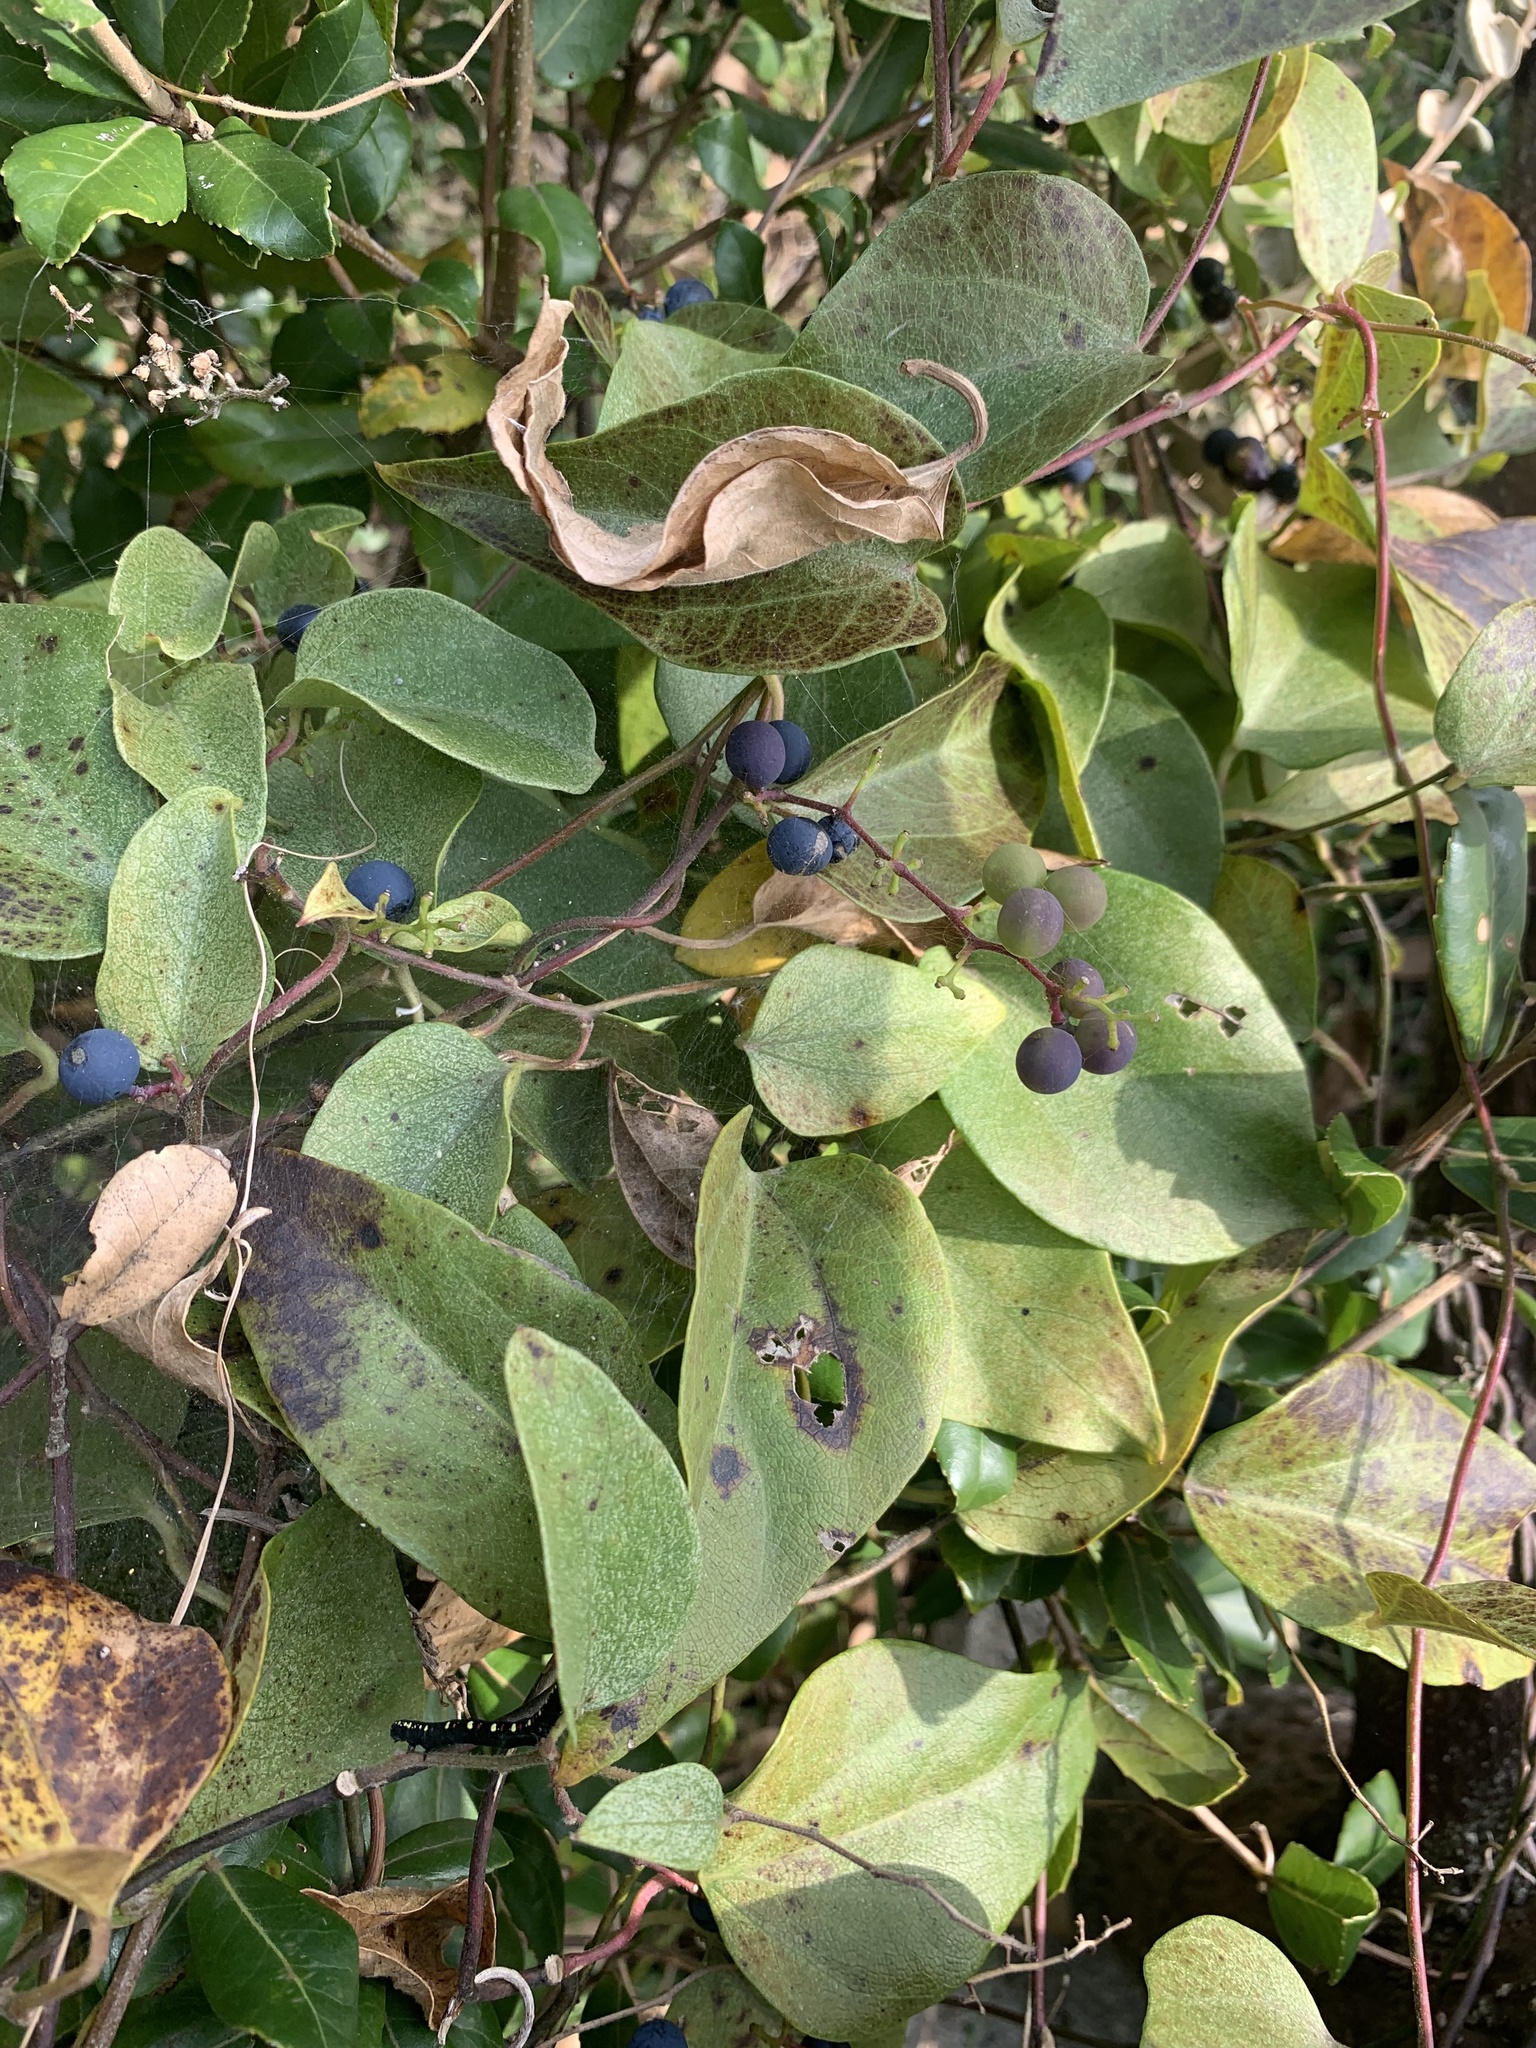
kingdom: Plantae
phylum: Tracheophyta
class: Magnoliopsida
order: Ranunculales
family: Menispermaceae
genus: Cocculus
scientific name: Cocculus orbiculatus
